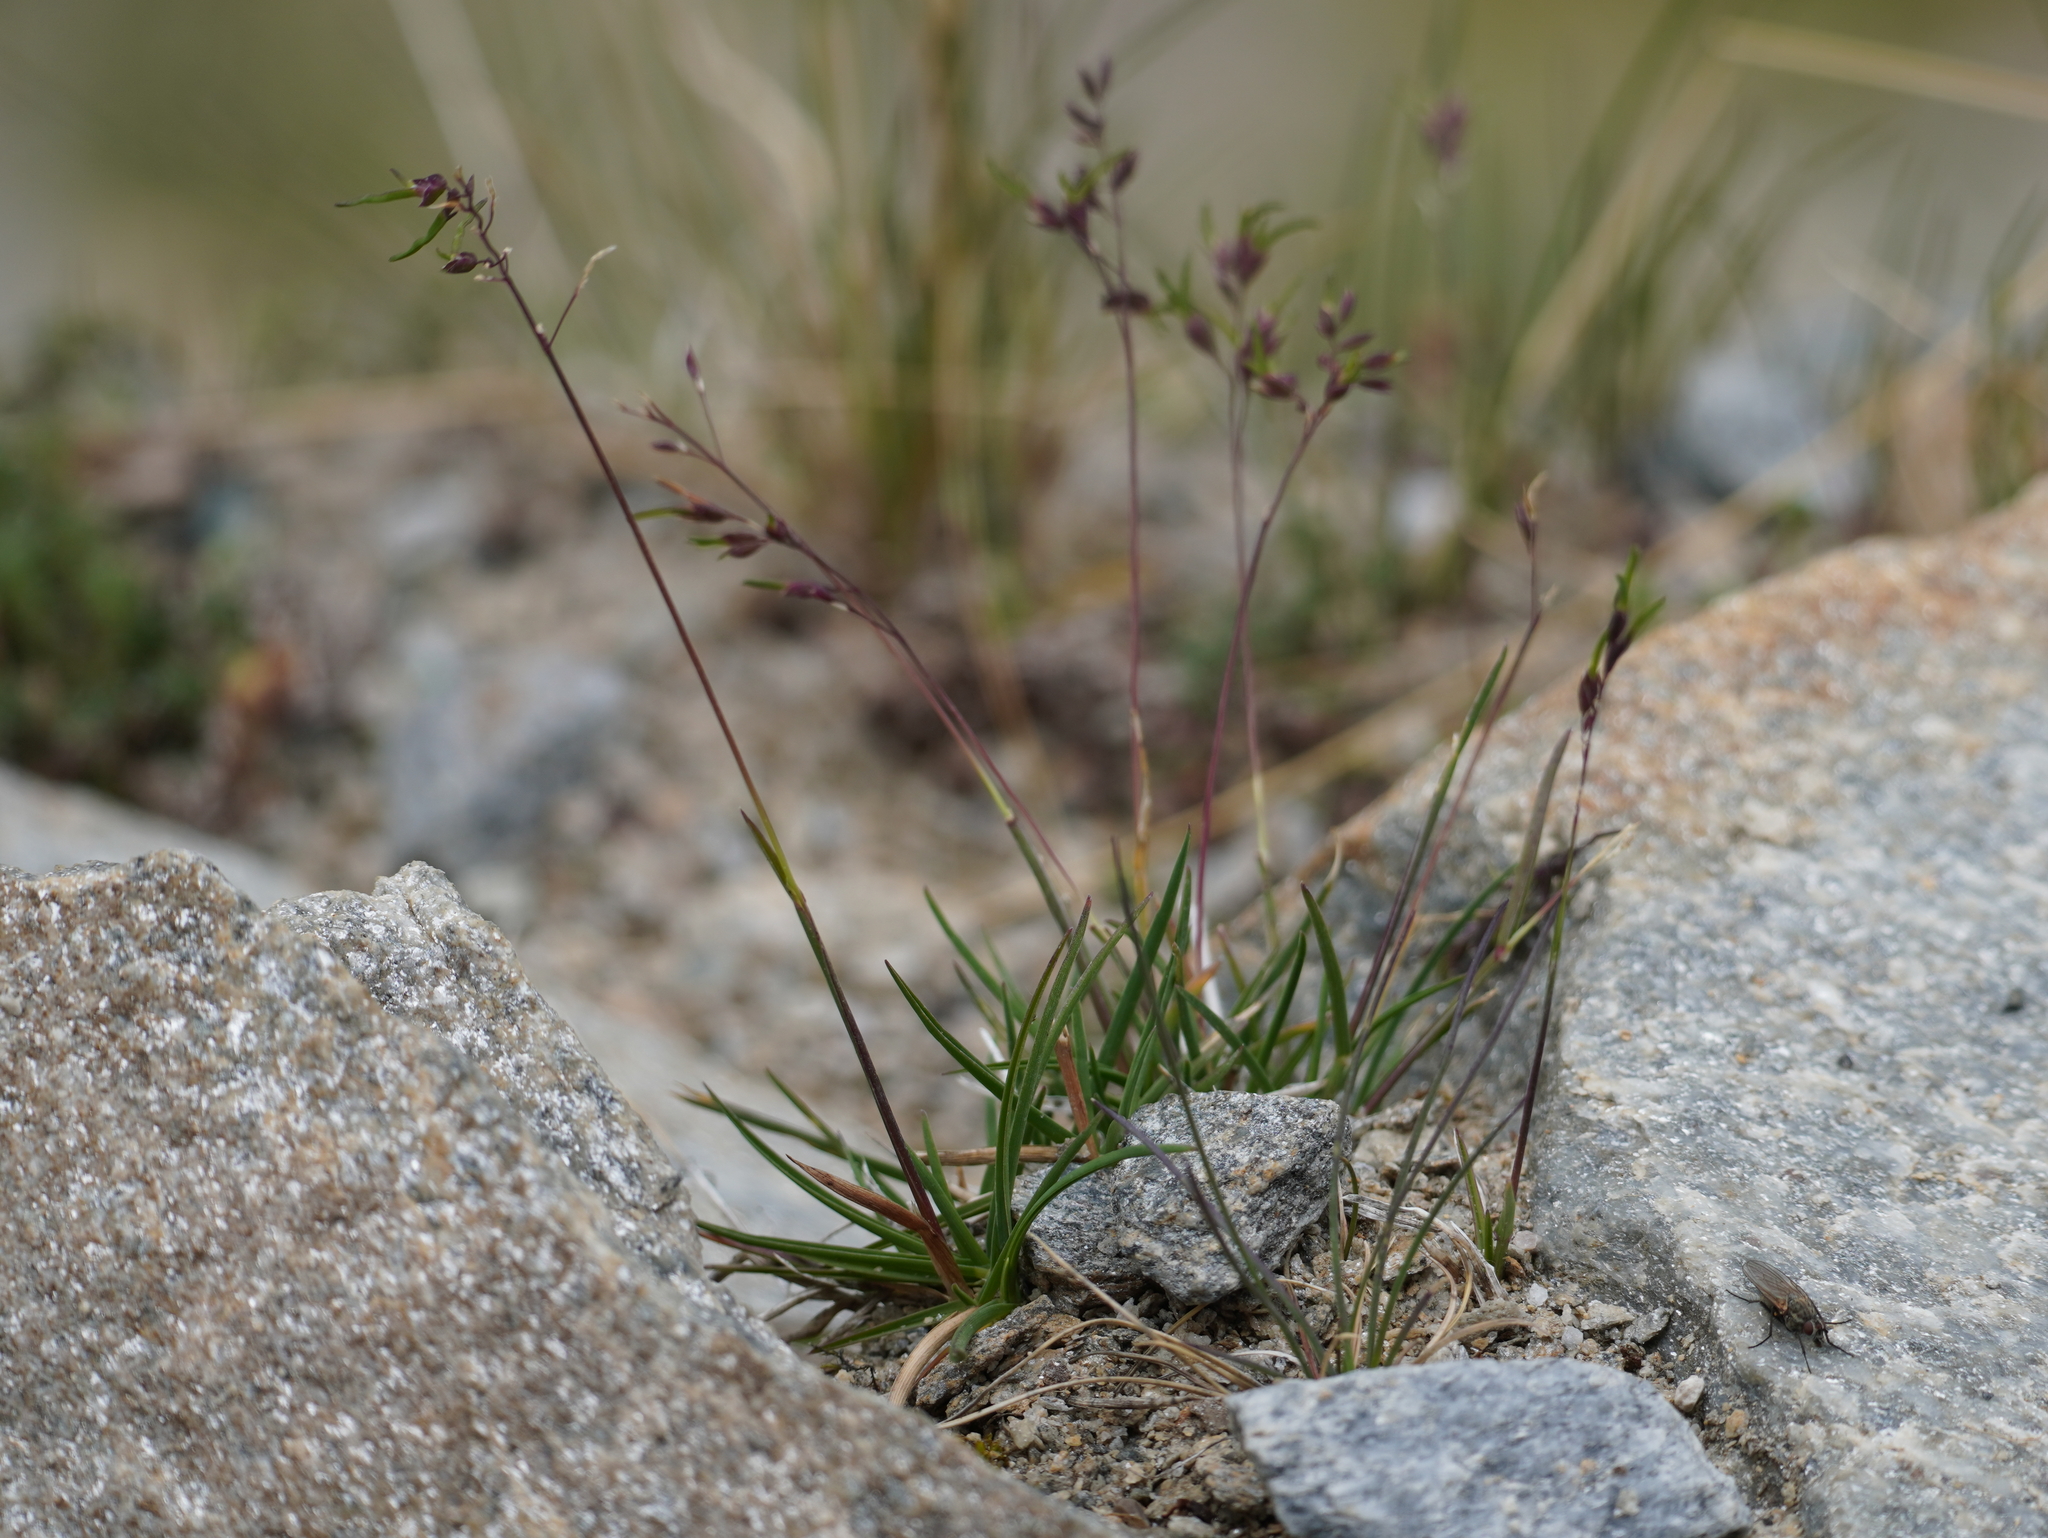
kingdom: Plantae
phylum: Tracheophyta
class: Liliopsida
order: Poales
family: Poaceae
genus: Poa
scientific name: Poa alpina
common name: Alpine bluegrass
